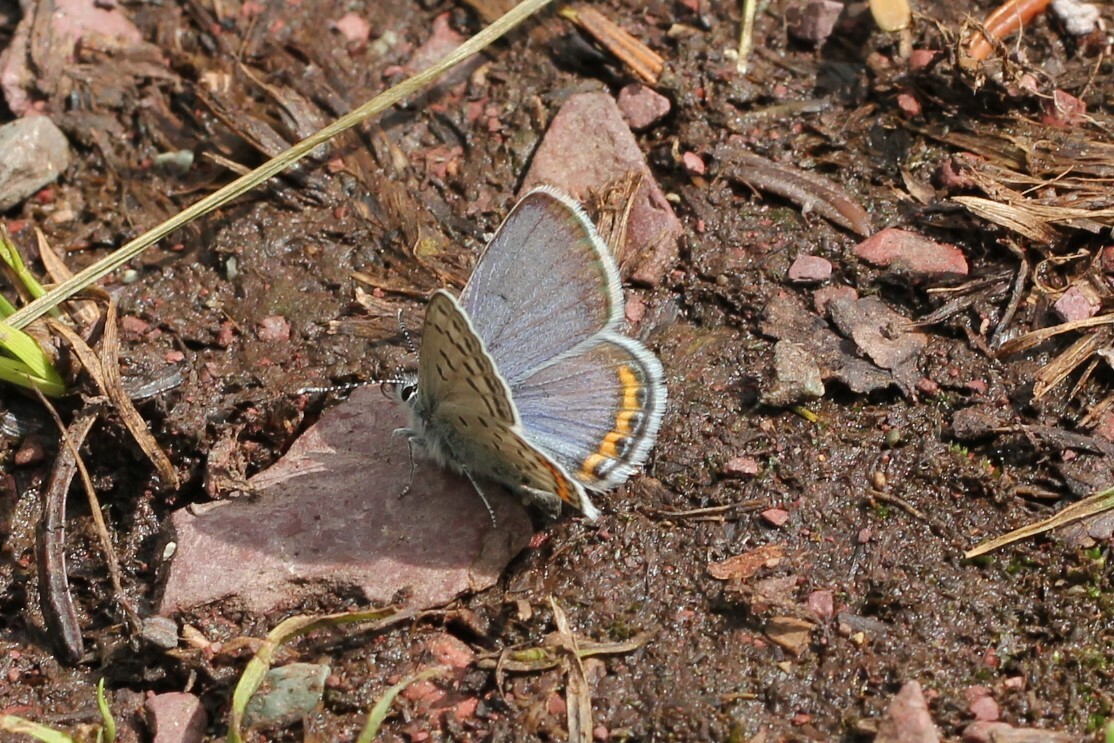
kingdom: Animalia
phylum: Arthropoda
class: Insecta
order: Lepidoptera
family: Lycaenidae
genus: Icaricia
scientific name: Icaricia lupini
